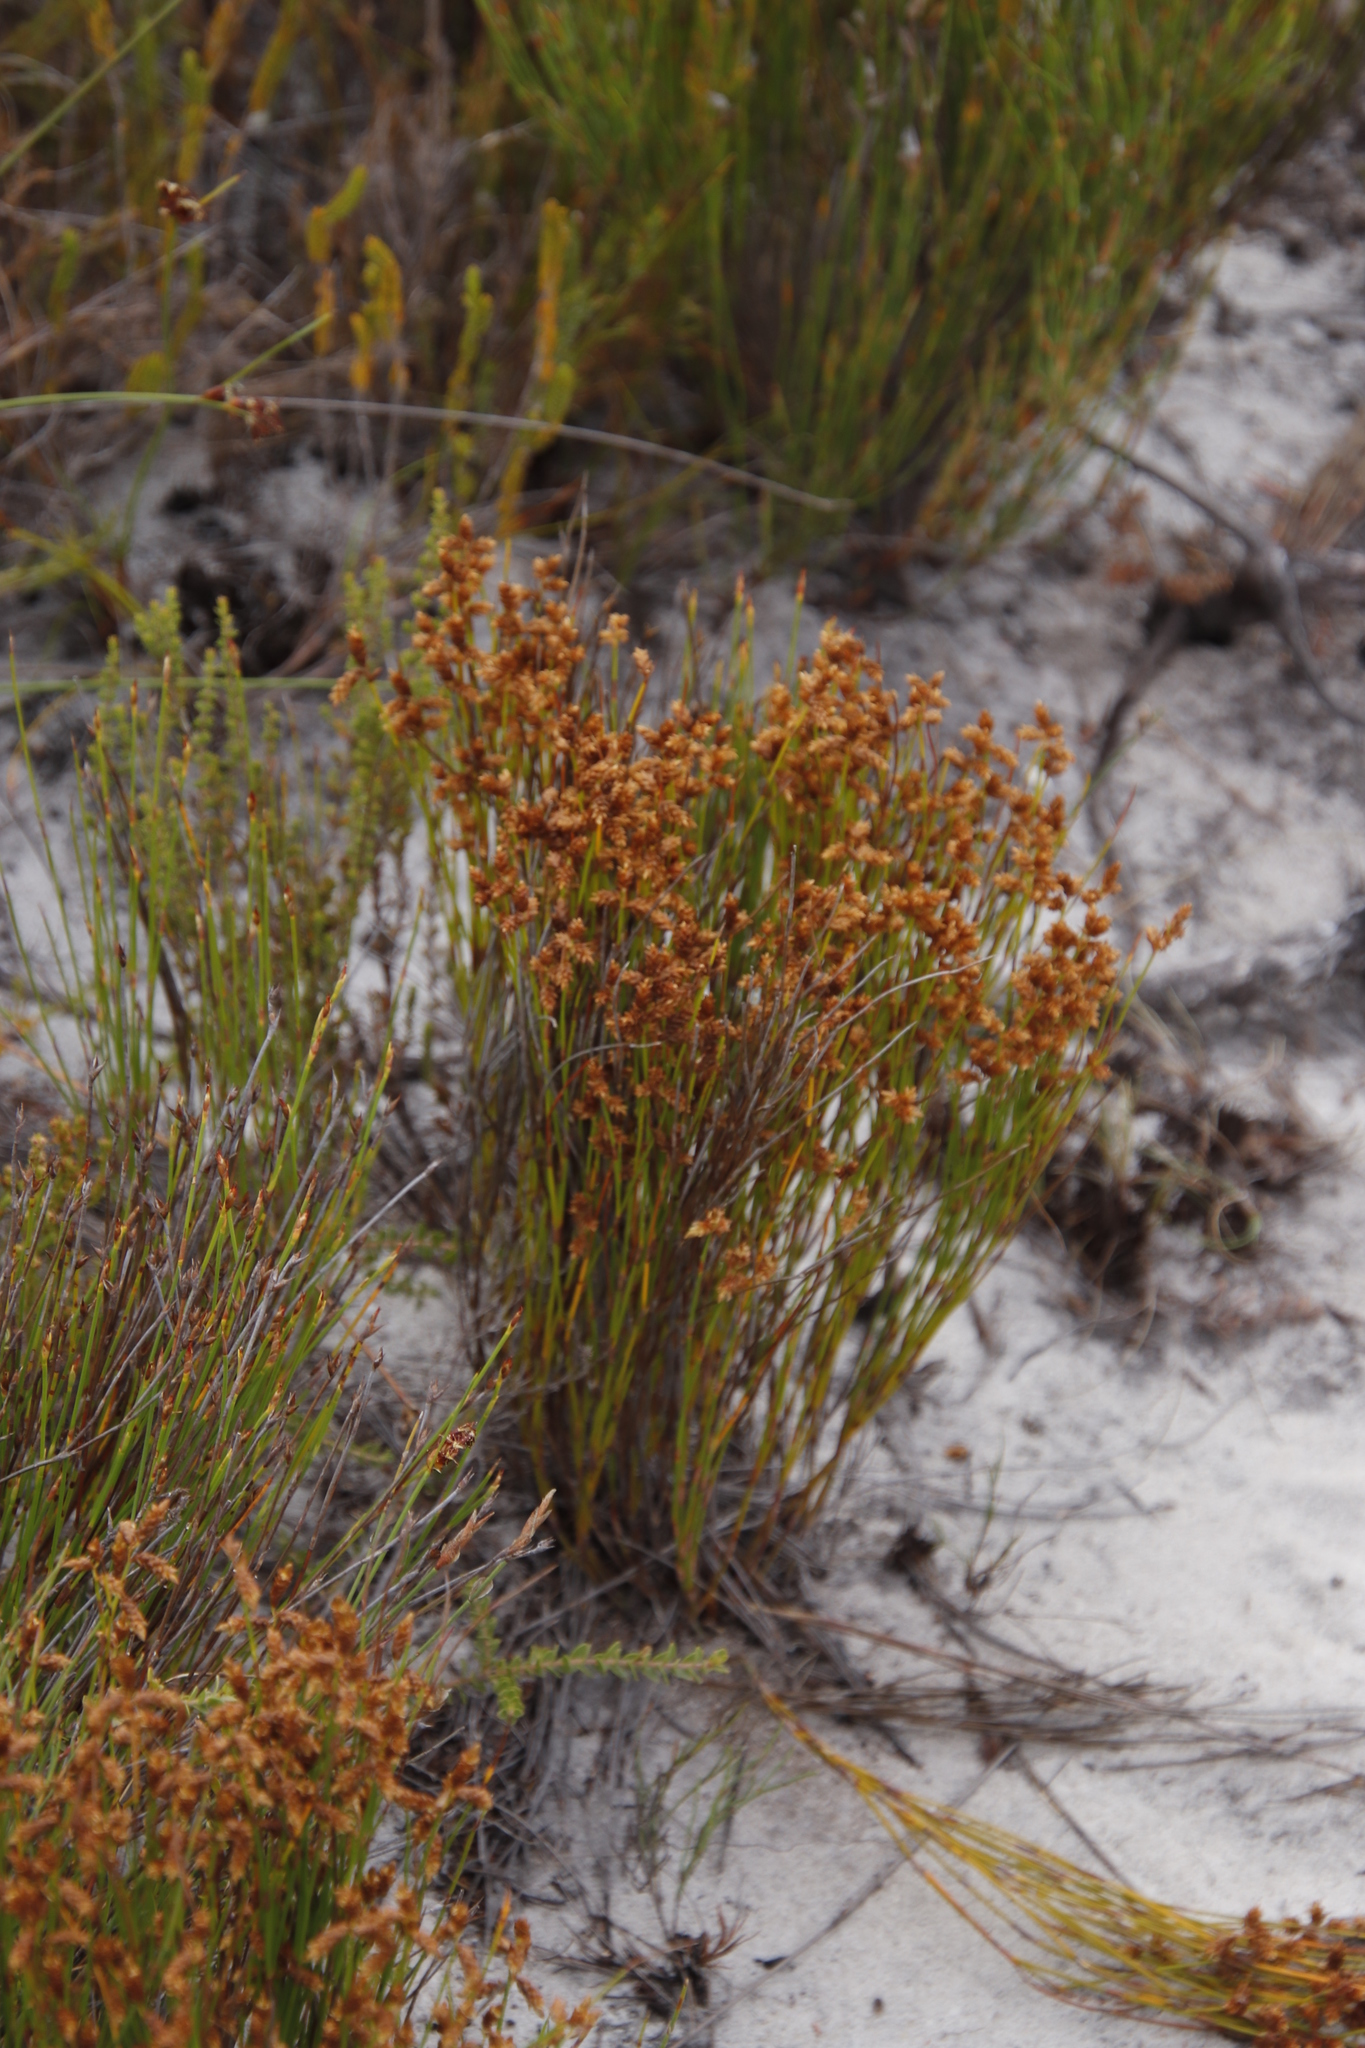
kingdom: Plantae
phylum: Tracheophyta
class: Liliopsida
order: Poales
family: Restionaceae
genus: Mastersiella
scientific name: Mastersiella digitata
